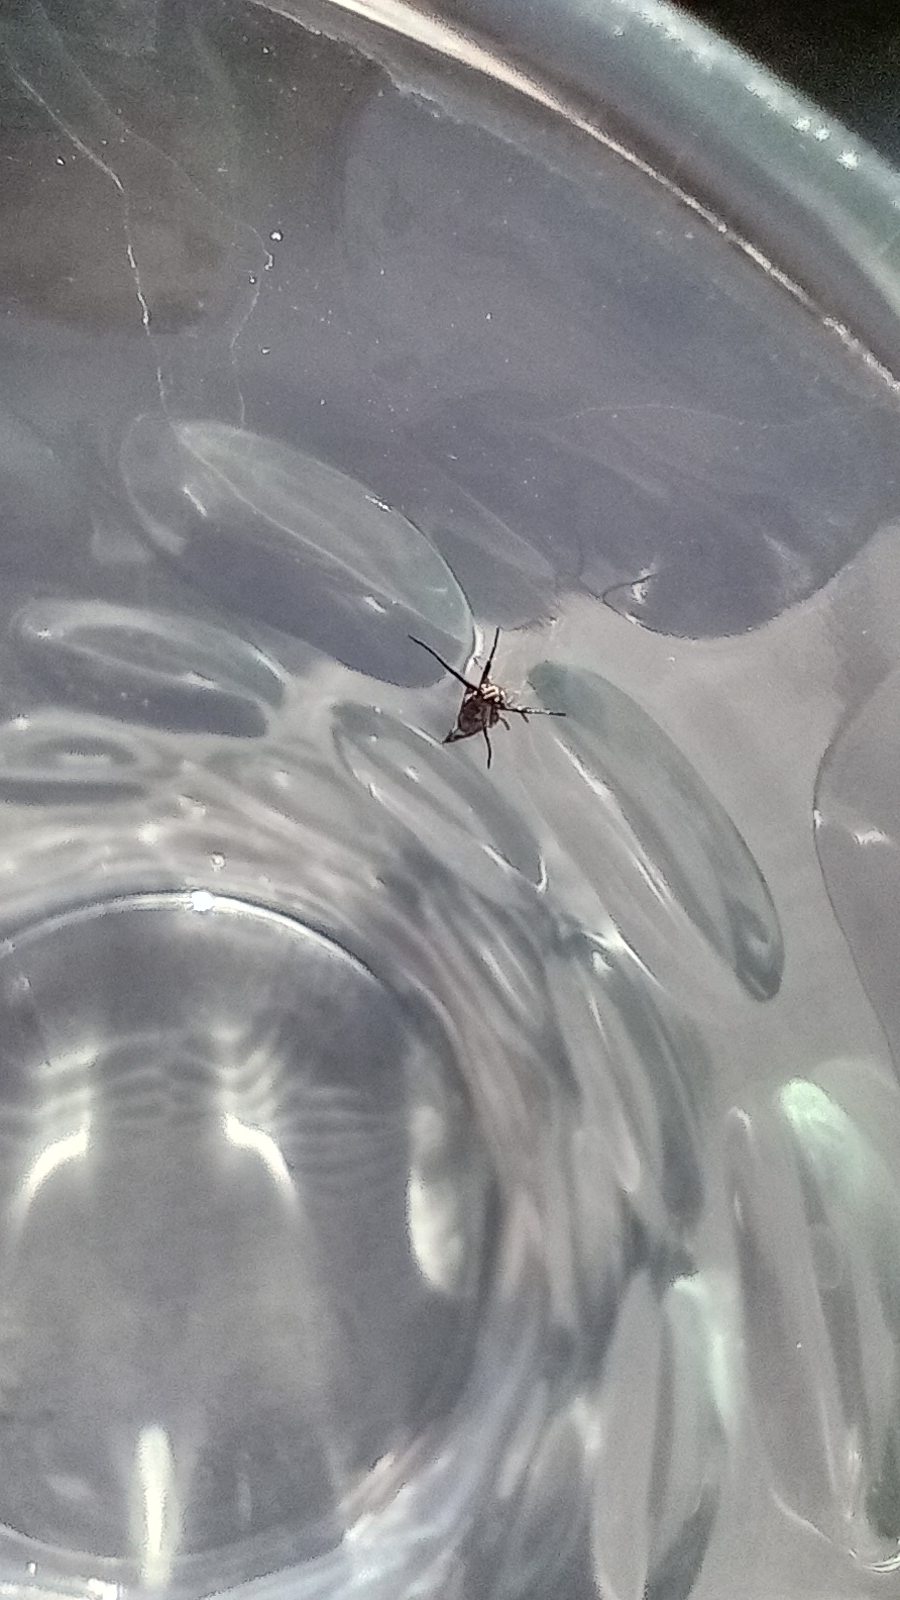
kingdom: Animalia
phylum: Arthropoda
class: Insecta
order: Lepidoptera
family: Oecophoridae
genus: Dafa
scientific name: Dafa Esperia sulphurella
